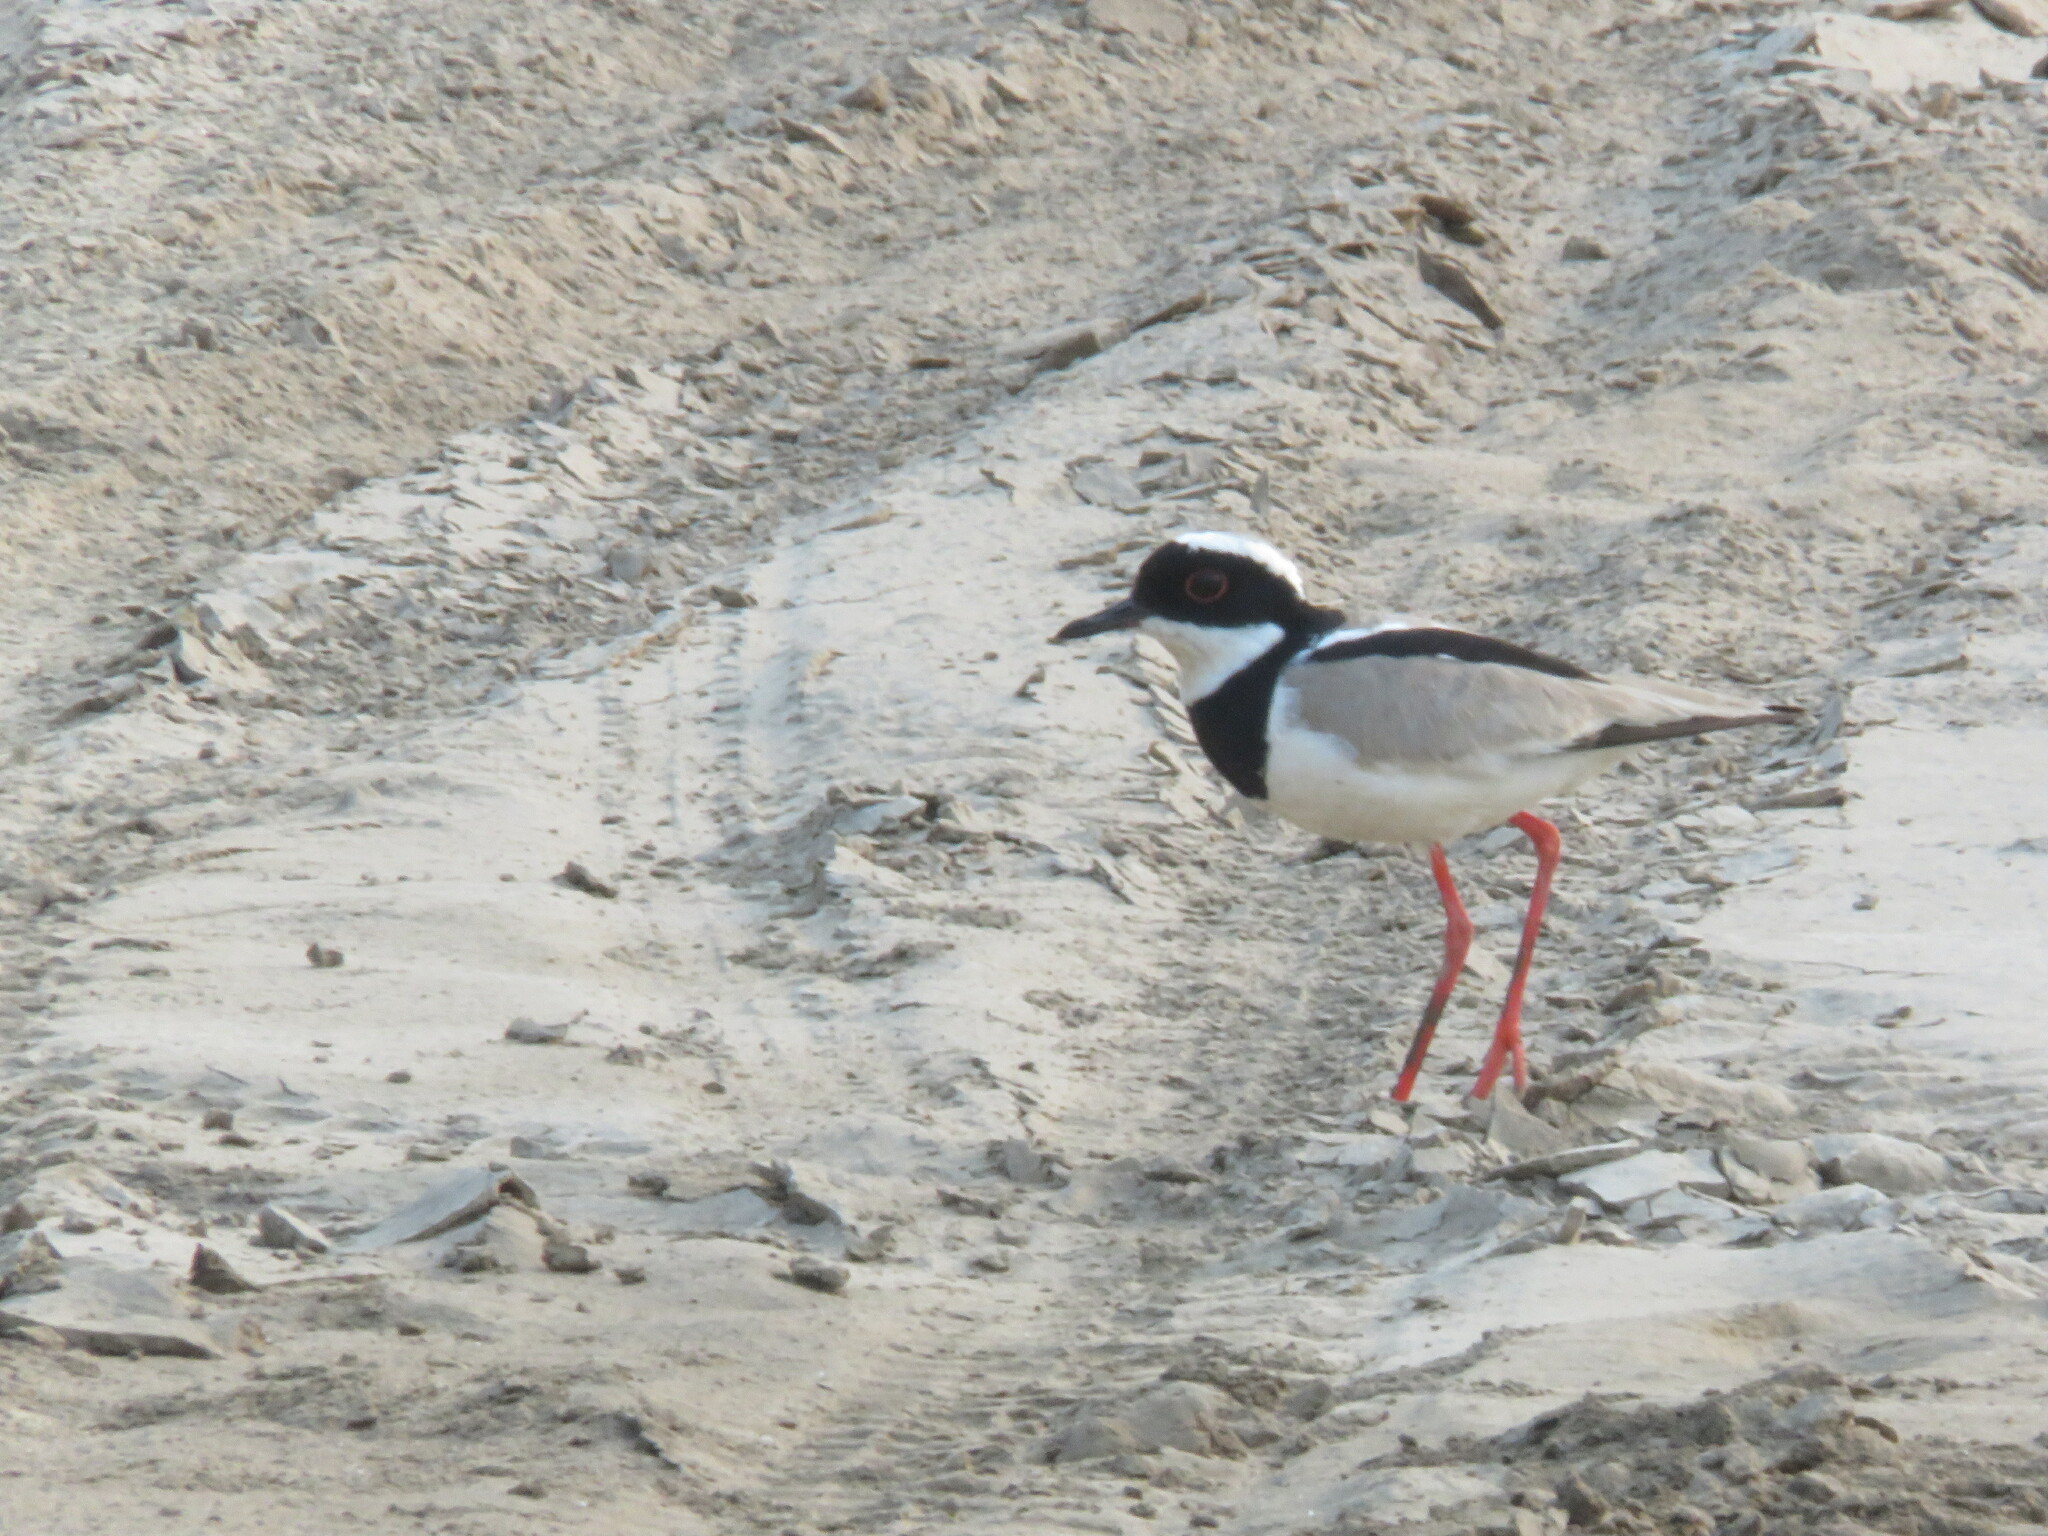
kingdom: Animalia
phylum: Chordata
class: Aves
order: Charadriiformes
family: Charadriidae
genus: Hoploxypterus
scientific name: Hoploxypterus cayanus
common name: Pied plover
